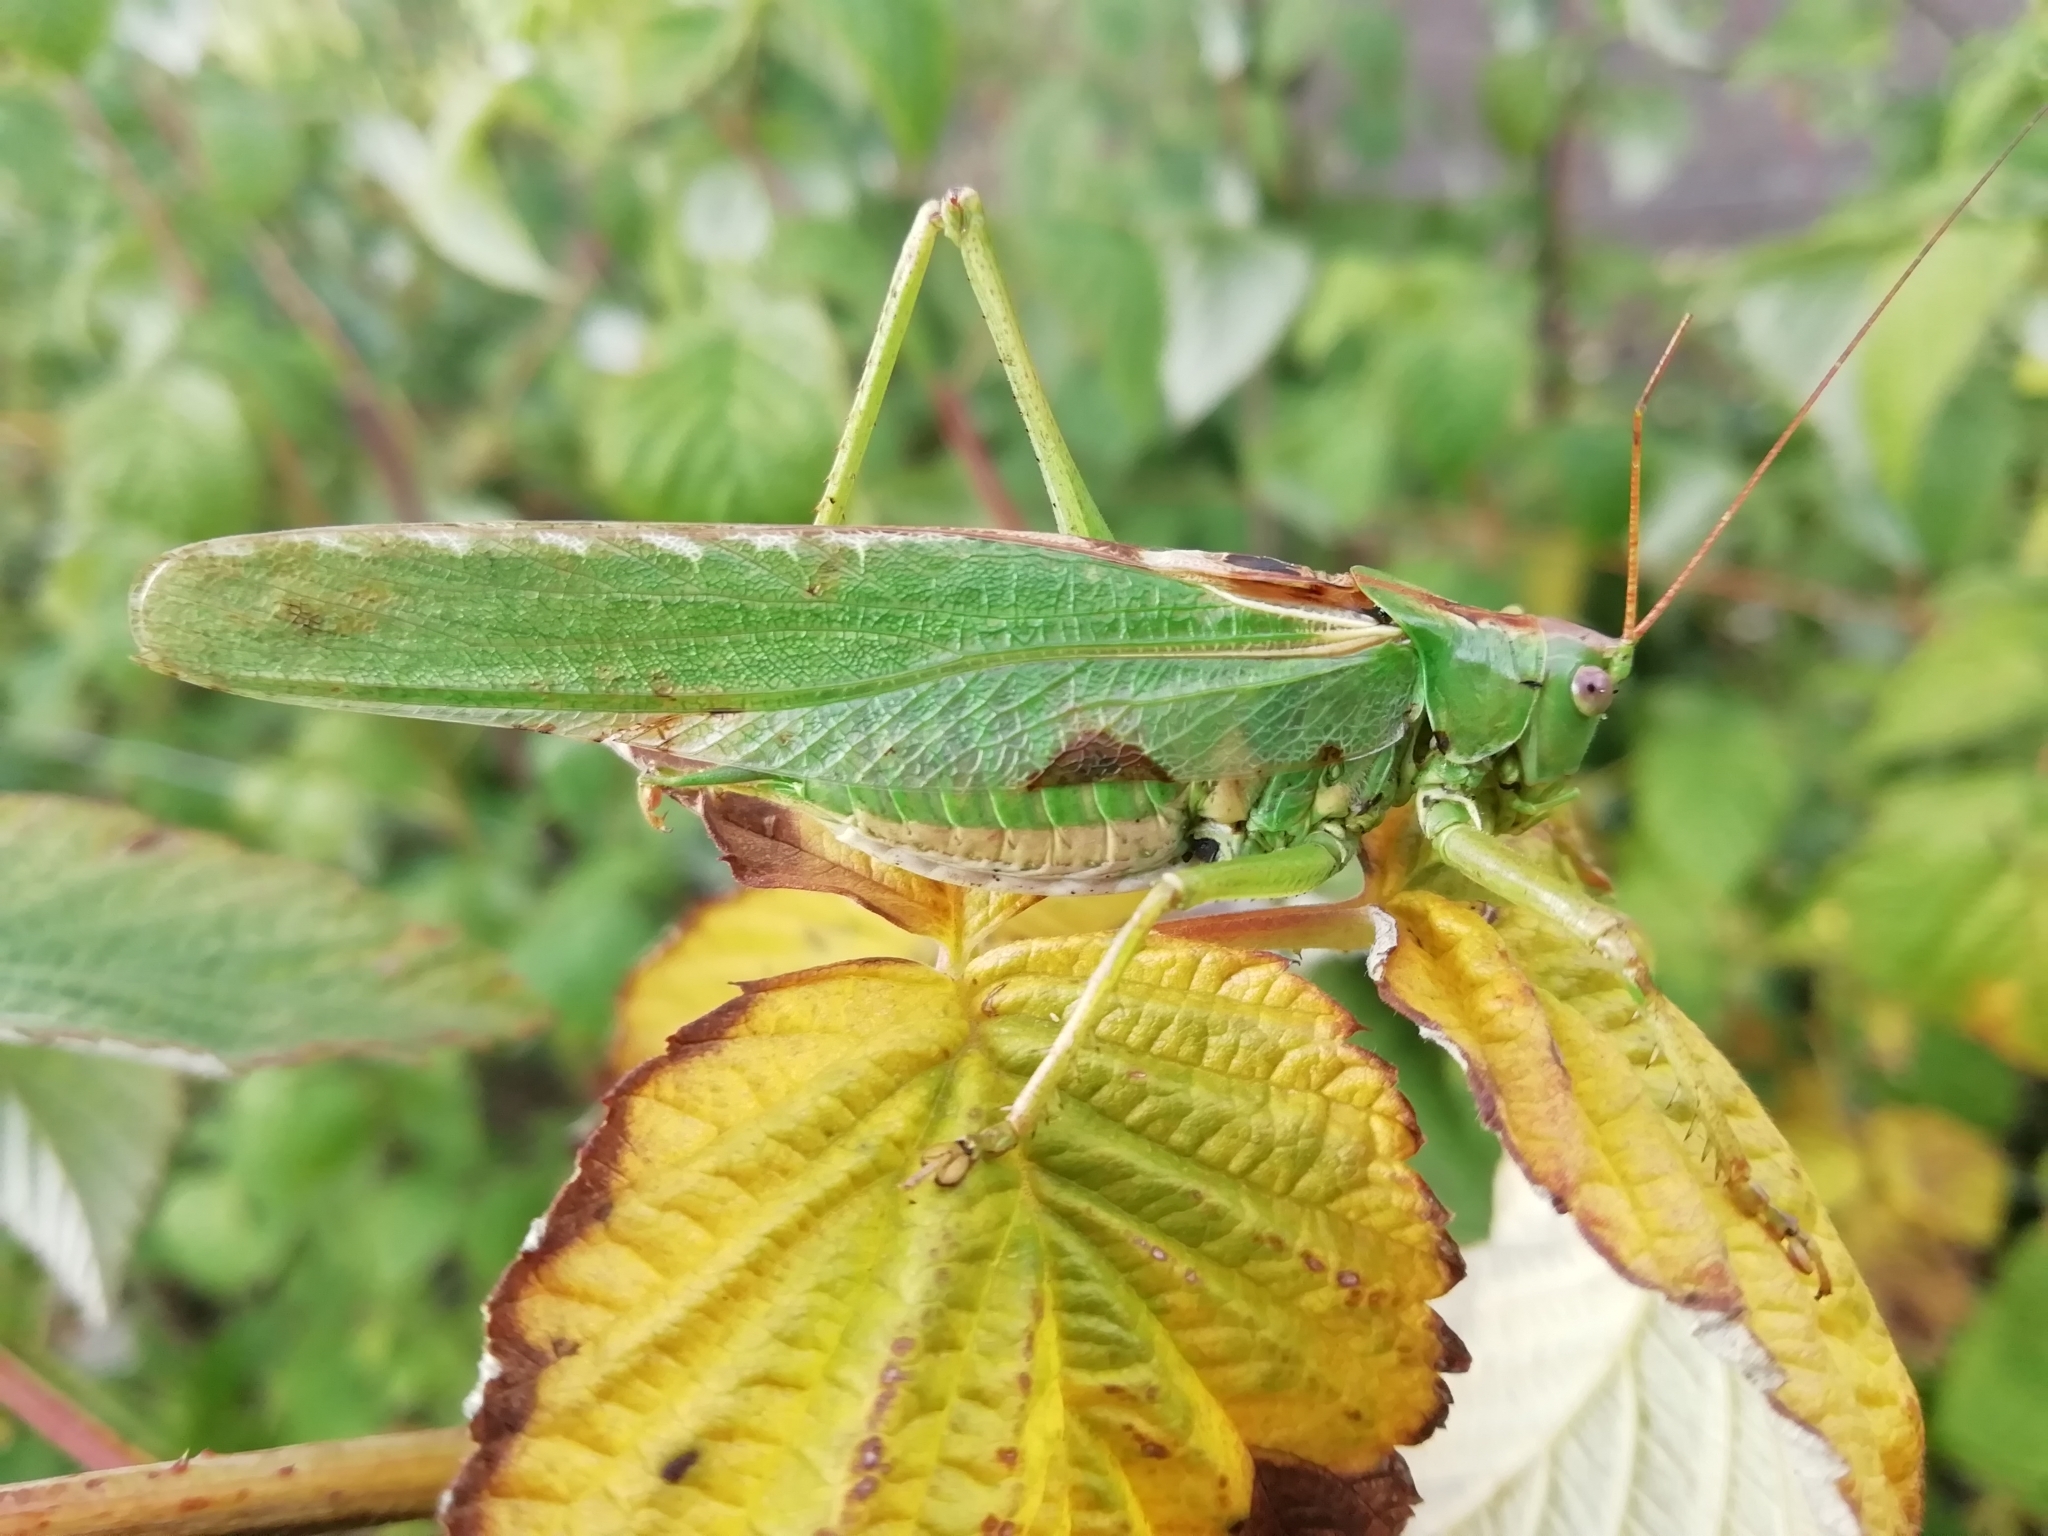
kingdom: Animalia
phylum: Arthropoda
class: Insecta
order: Orthoptera
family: Tettigoniidae
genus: Tettigonia
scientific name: Tettigonia viridissima
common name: Great green bush-cricket
